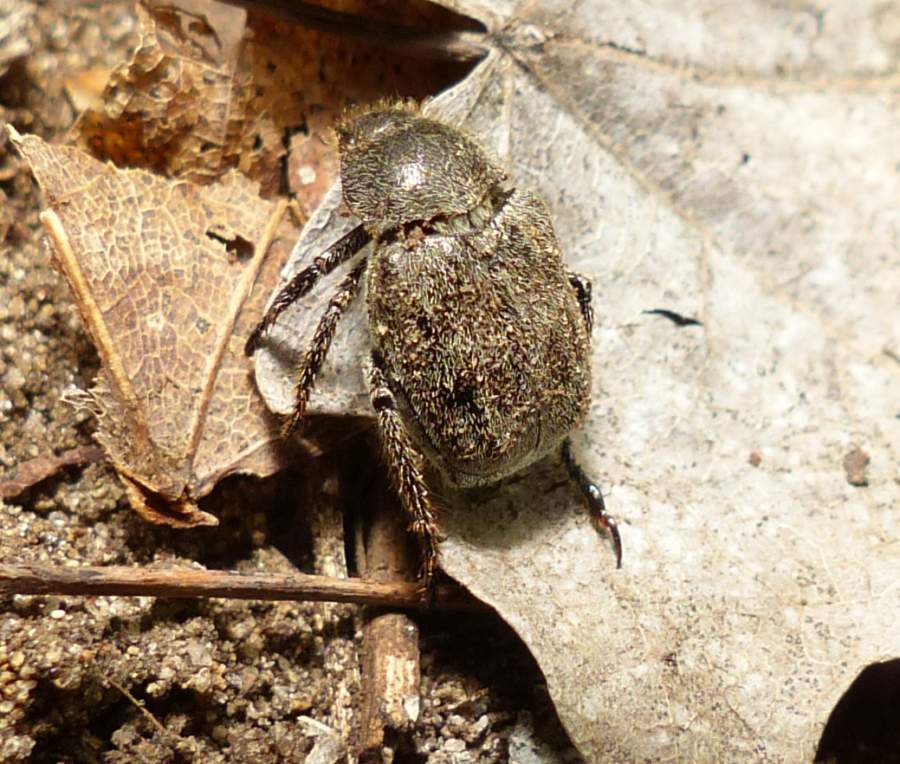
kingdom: Animalia
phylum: Arthropoda
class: Insecta
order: Coleoptera
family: Scarabaeidae
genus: Hoplia
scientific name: Hoplia trifasciata
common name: Three-lined hoplia
